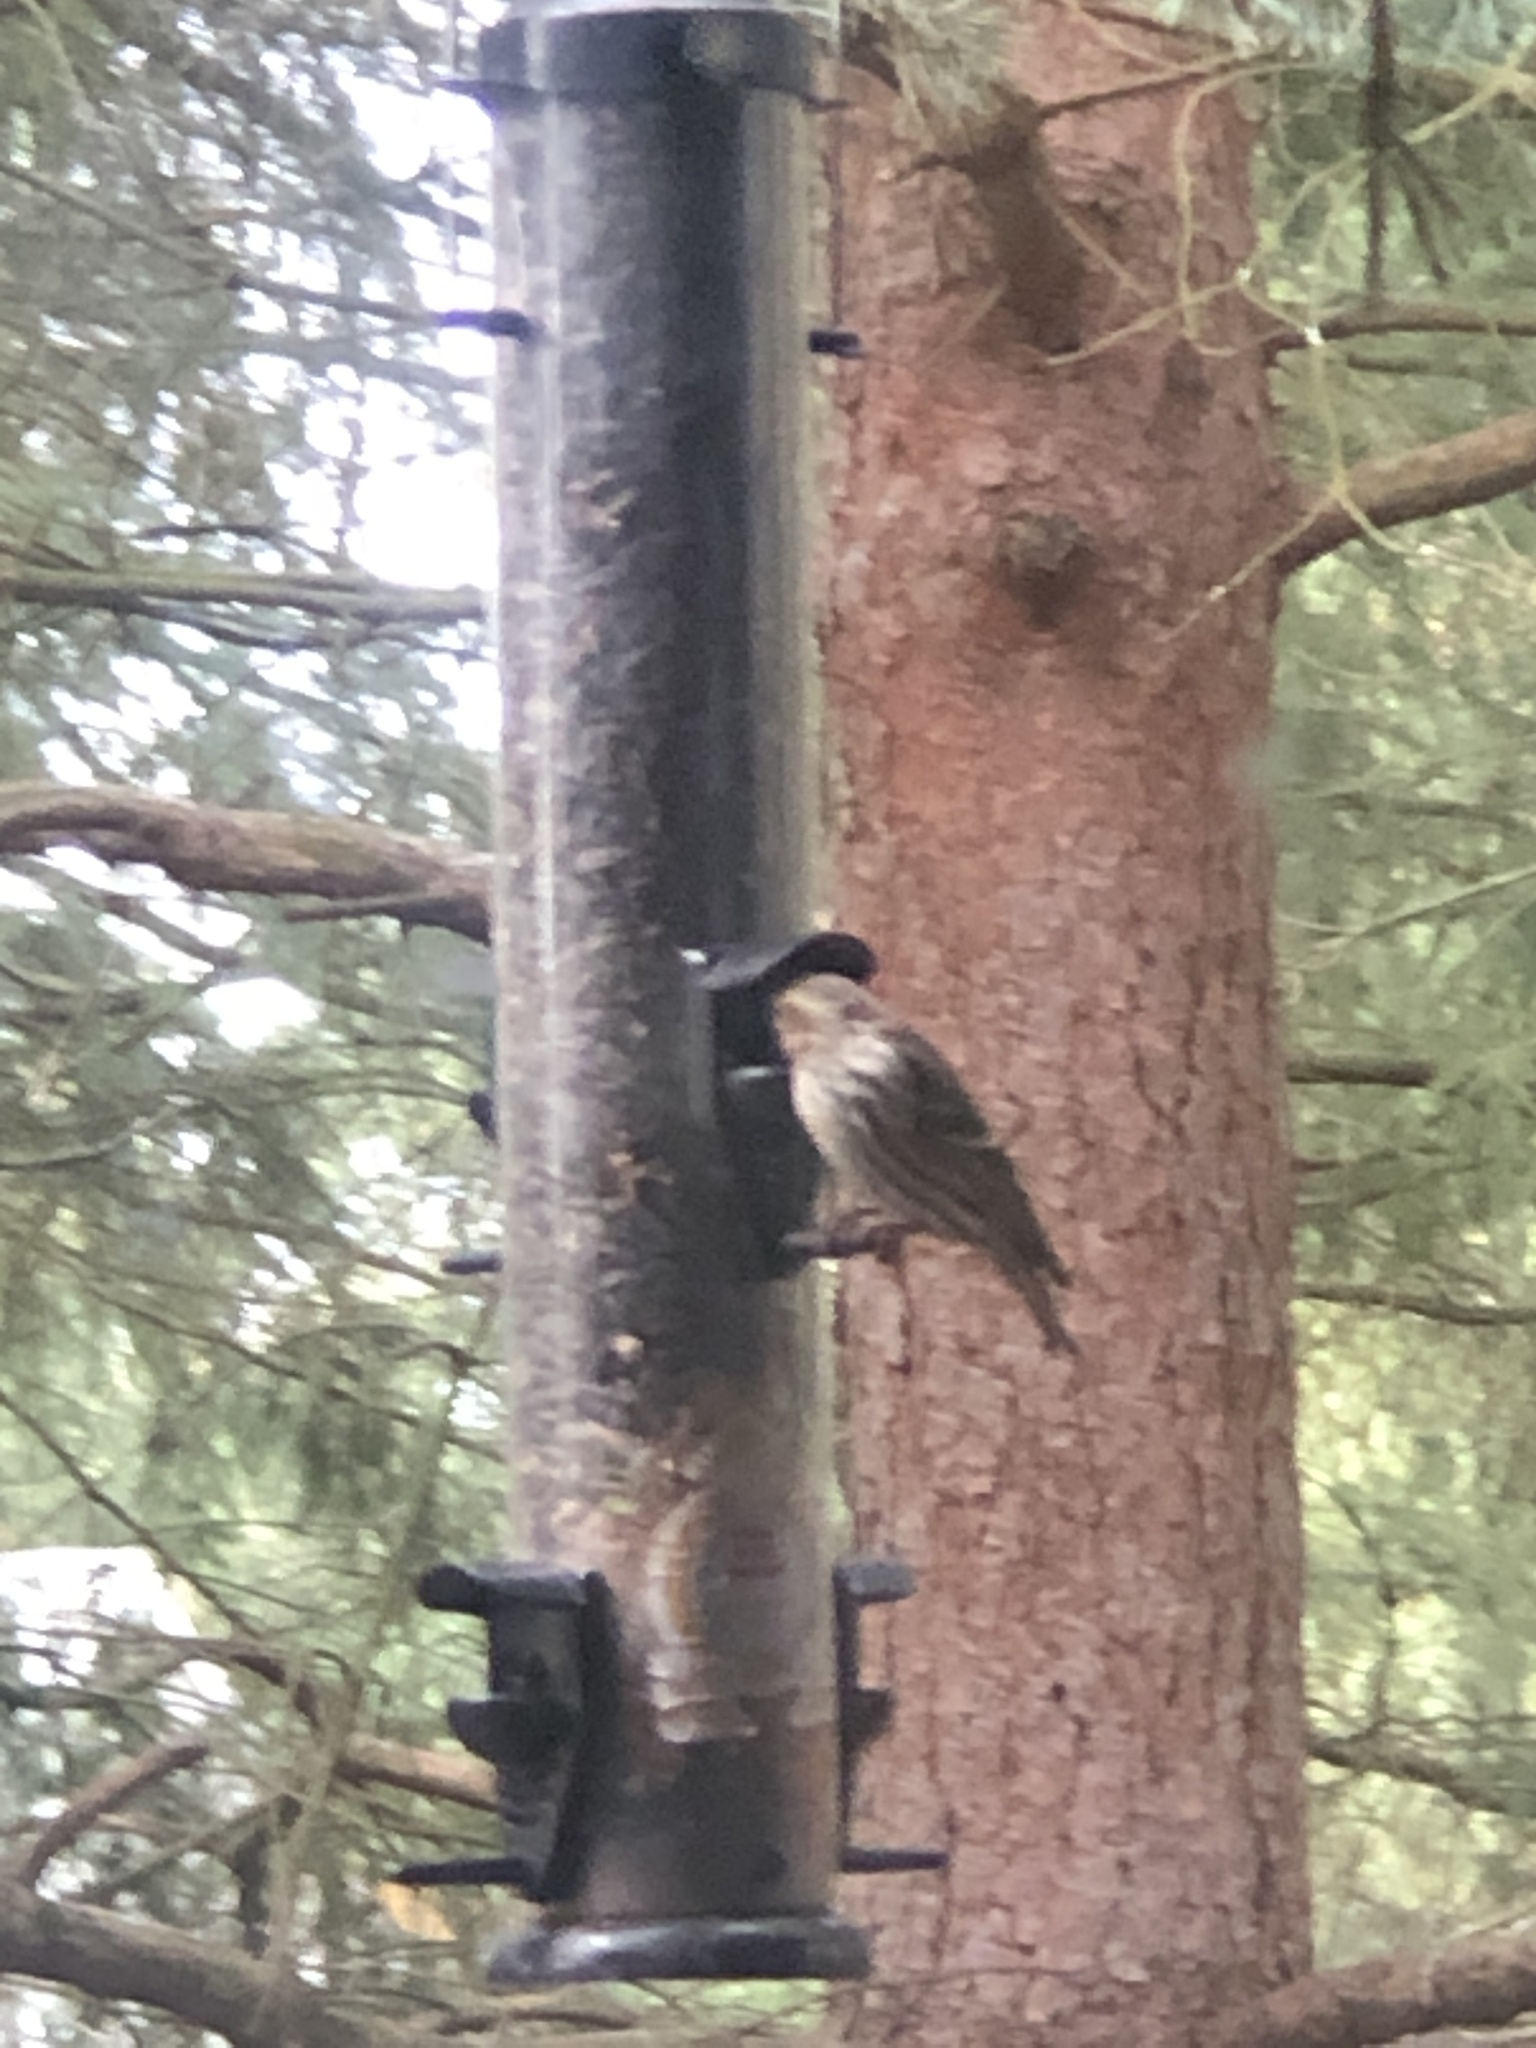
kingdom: Animalia
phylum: Chordata
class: Aves
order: Passeriformes
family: Fringillidae
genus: Spinus
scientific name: Spinus pinus
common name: Pine siskin
